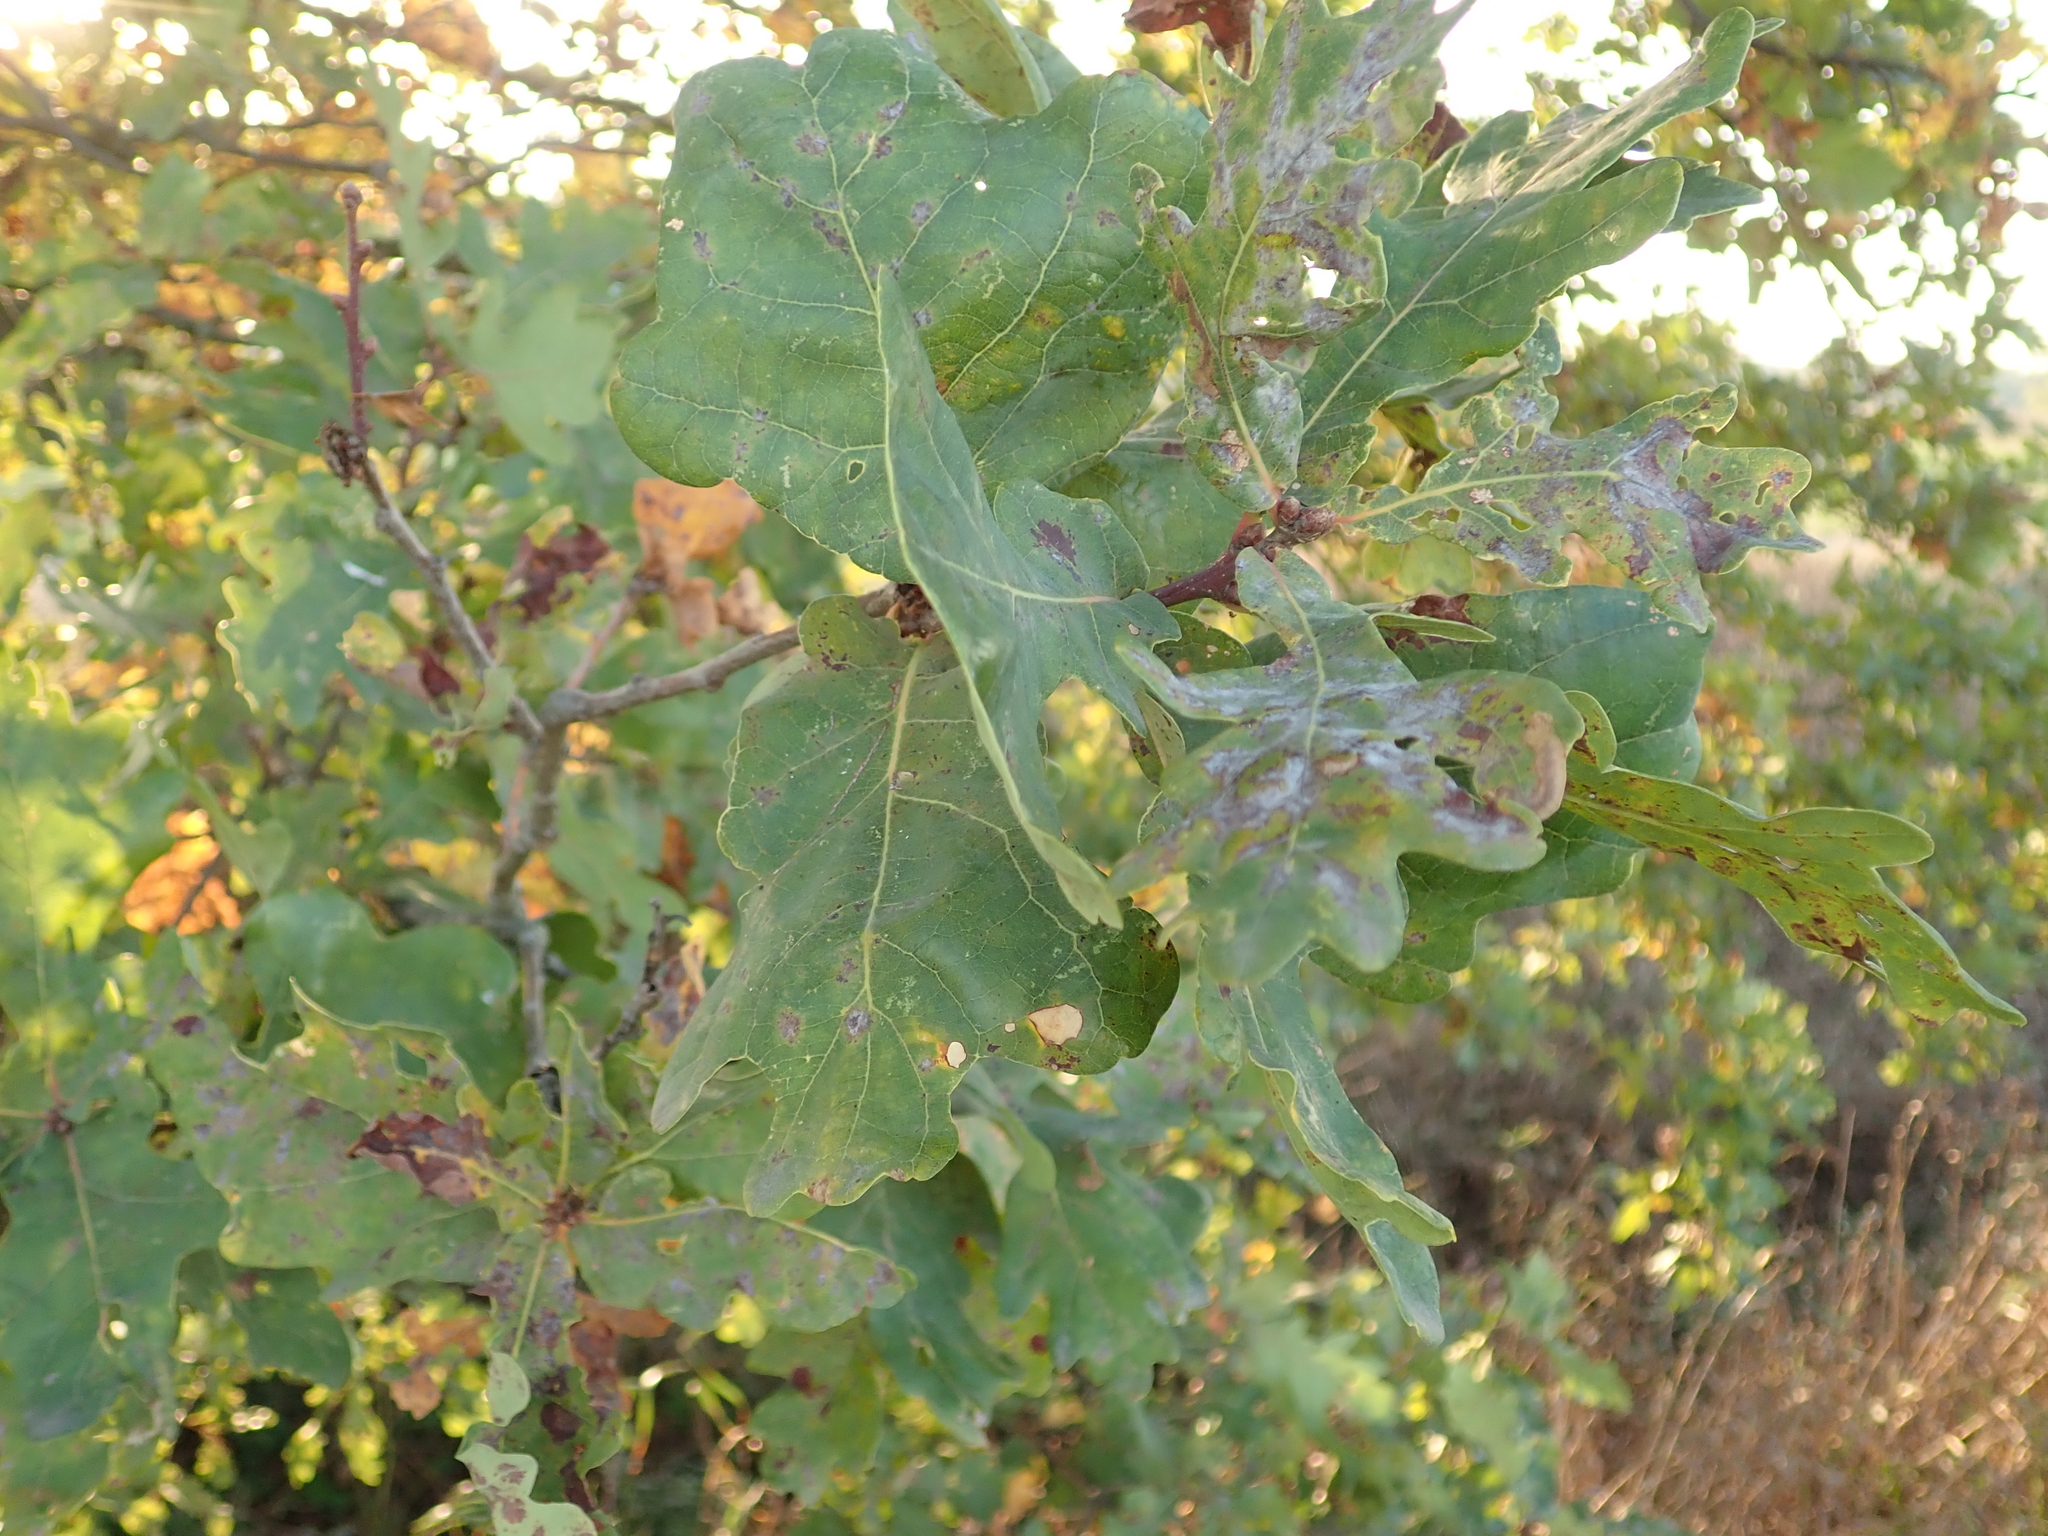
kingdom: Plantae
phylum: Tracheophyta
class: Magnoliopsida
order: Fagales
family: Fagaceae
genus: Quercus
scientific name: Quercus robur
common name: Pedunculate oak
